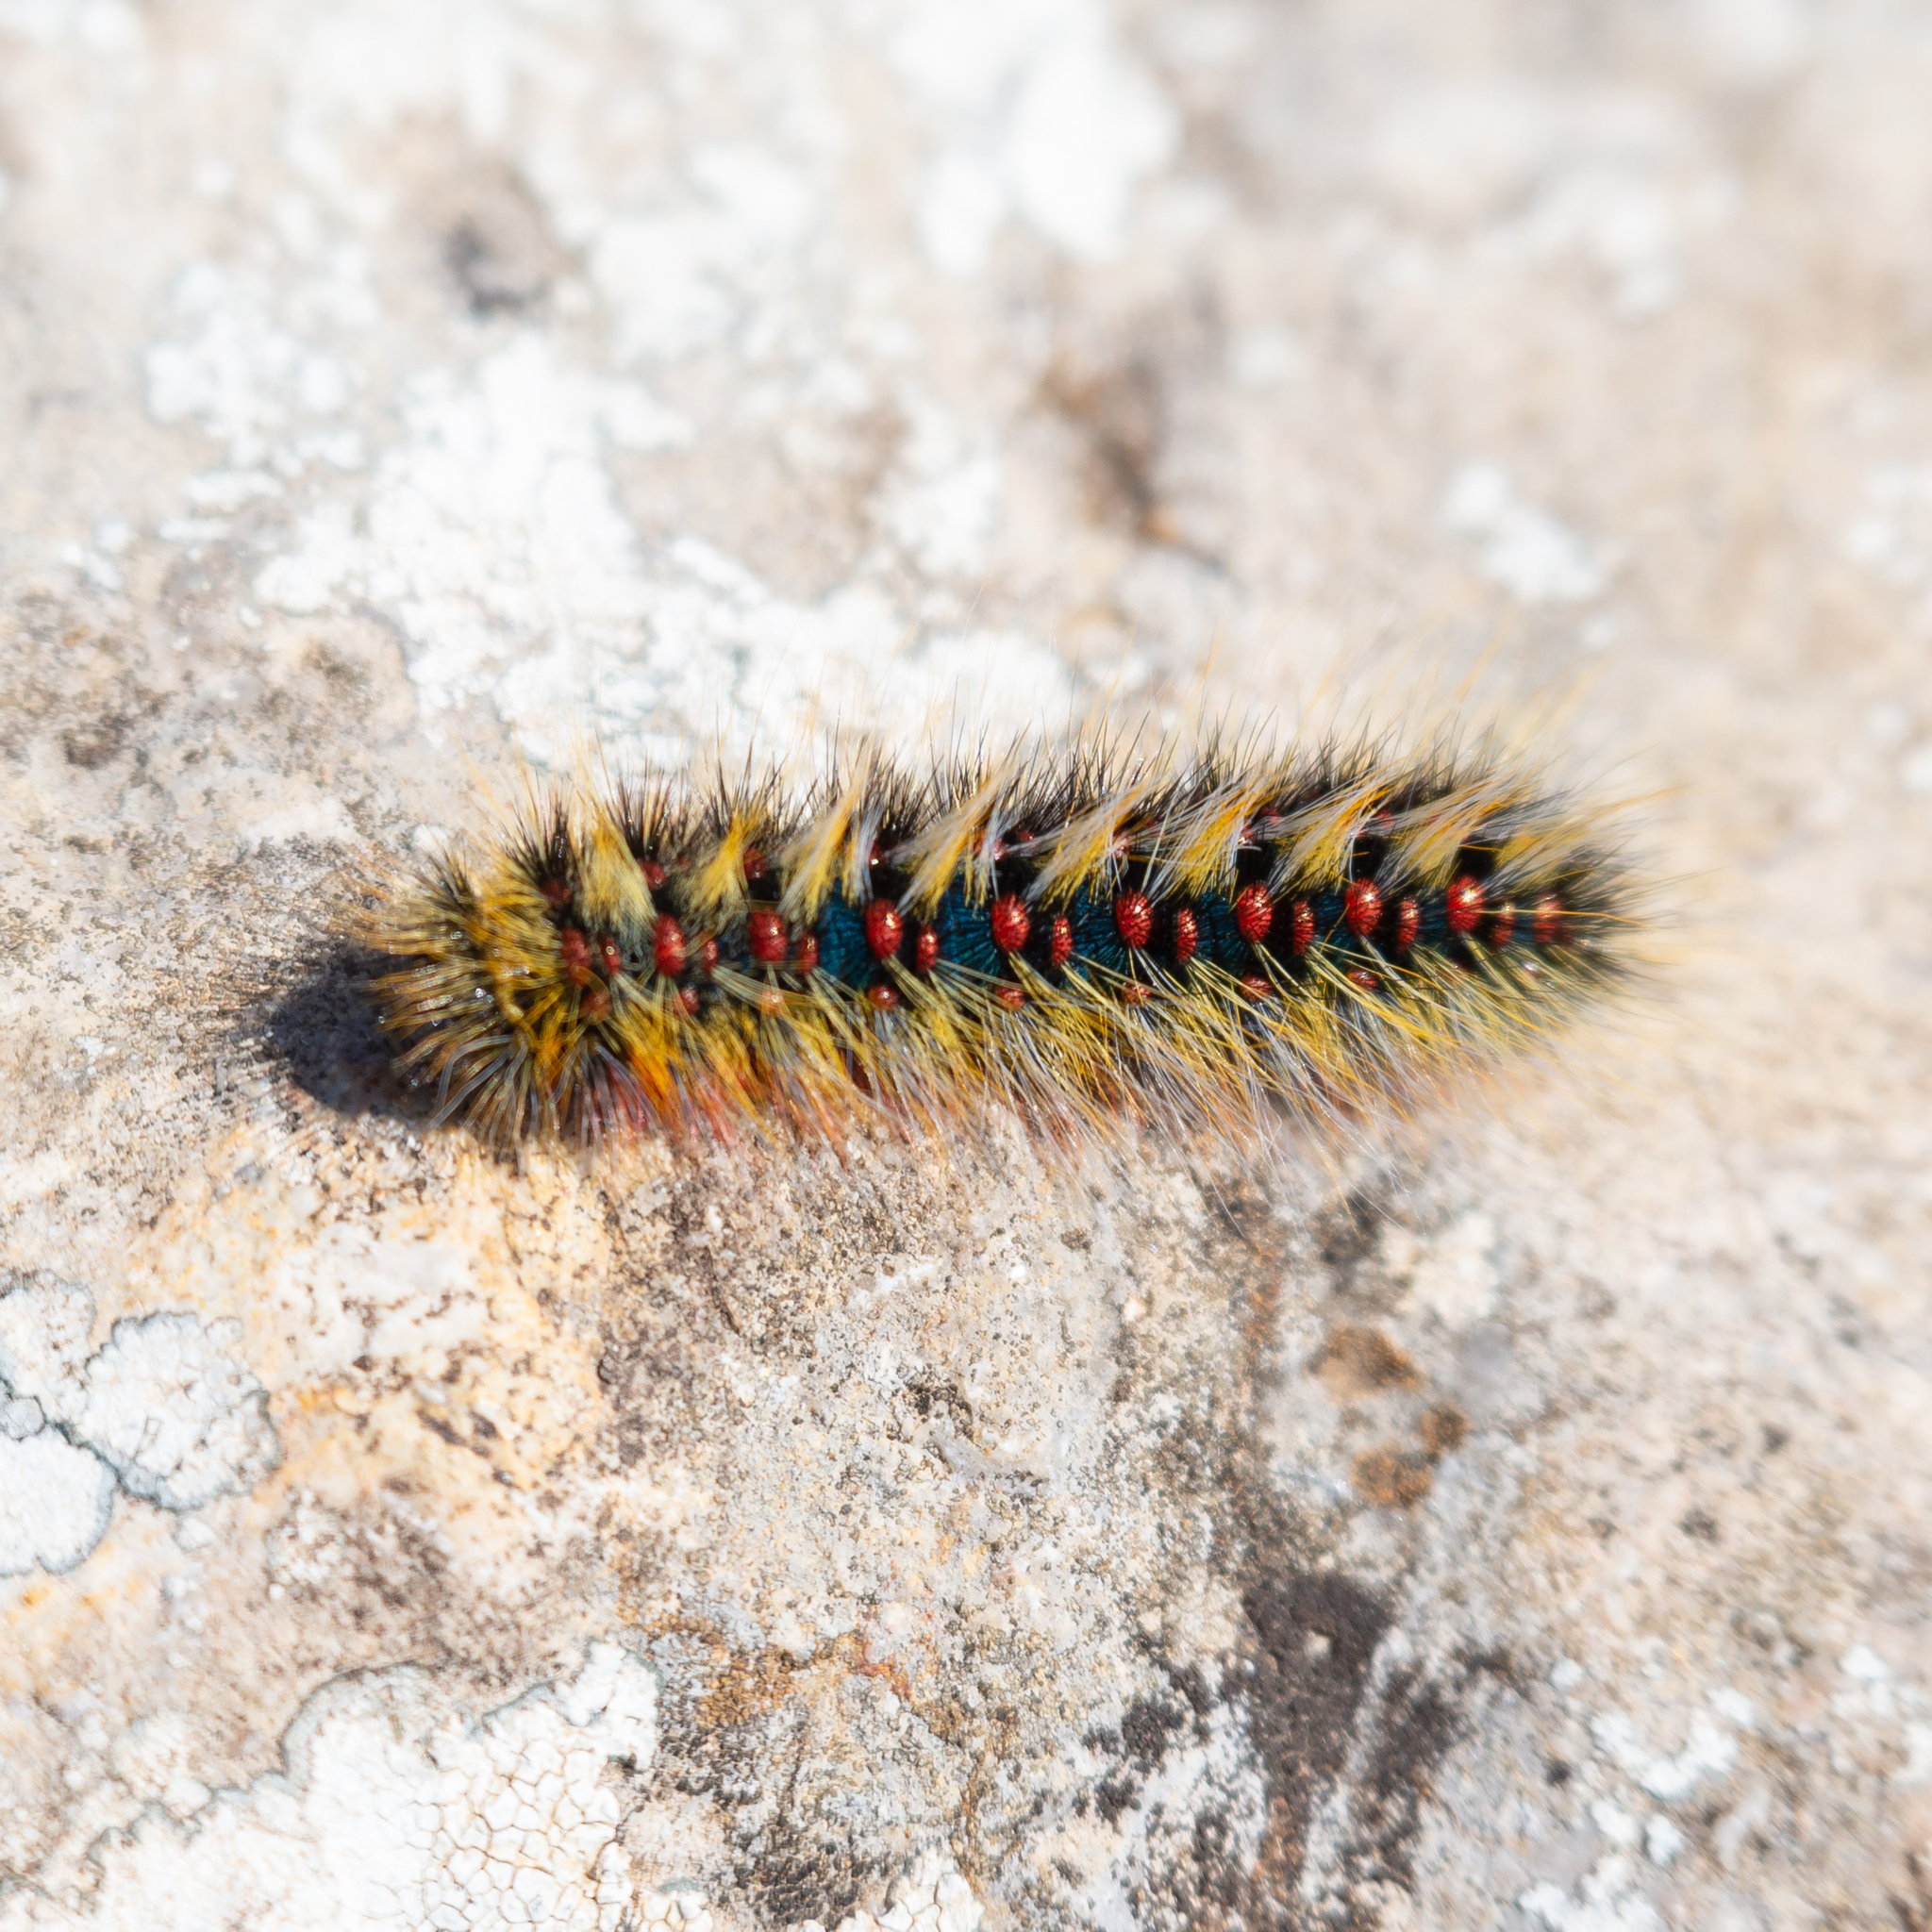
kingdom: Animalia
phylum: Arthropoda
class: Insecta
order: Lepidoptera
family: Lasiocampidae
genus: Chondrostega
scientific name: Chondrostega vandalicia
